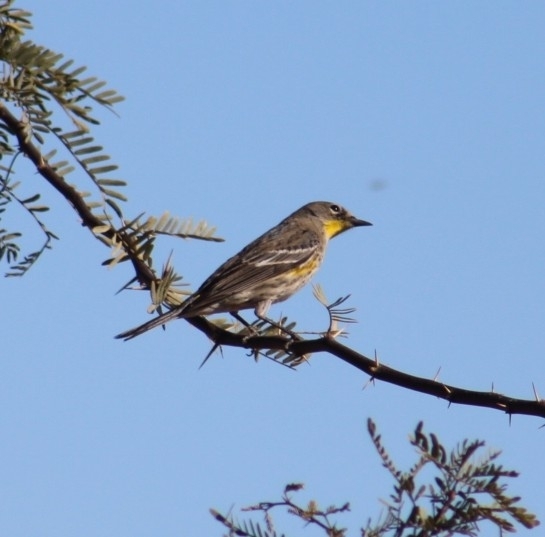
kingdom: Animalia
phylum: Chordata
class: Aves
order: Passeriformes
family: Parulidae
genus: Setophaga
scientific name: Setophaga coronata
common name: Myrtle warbler
